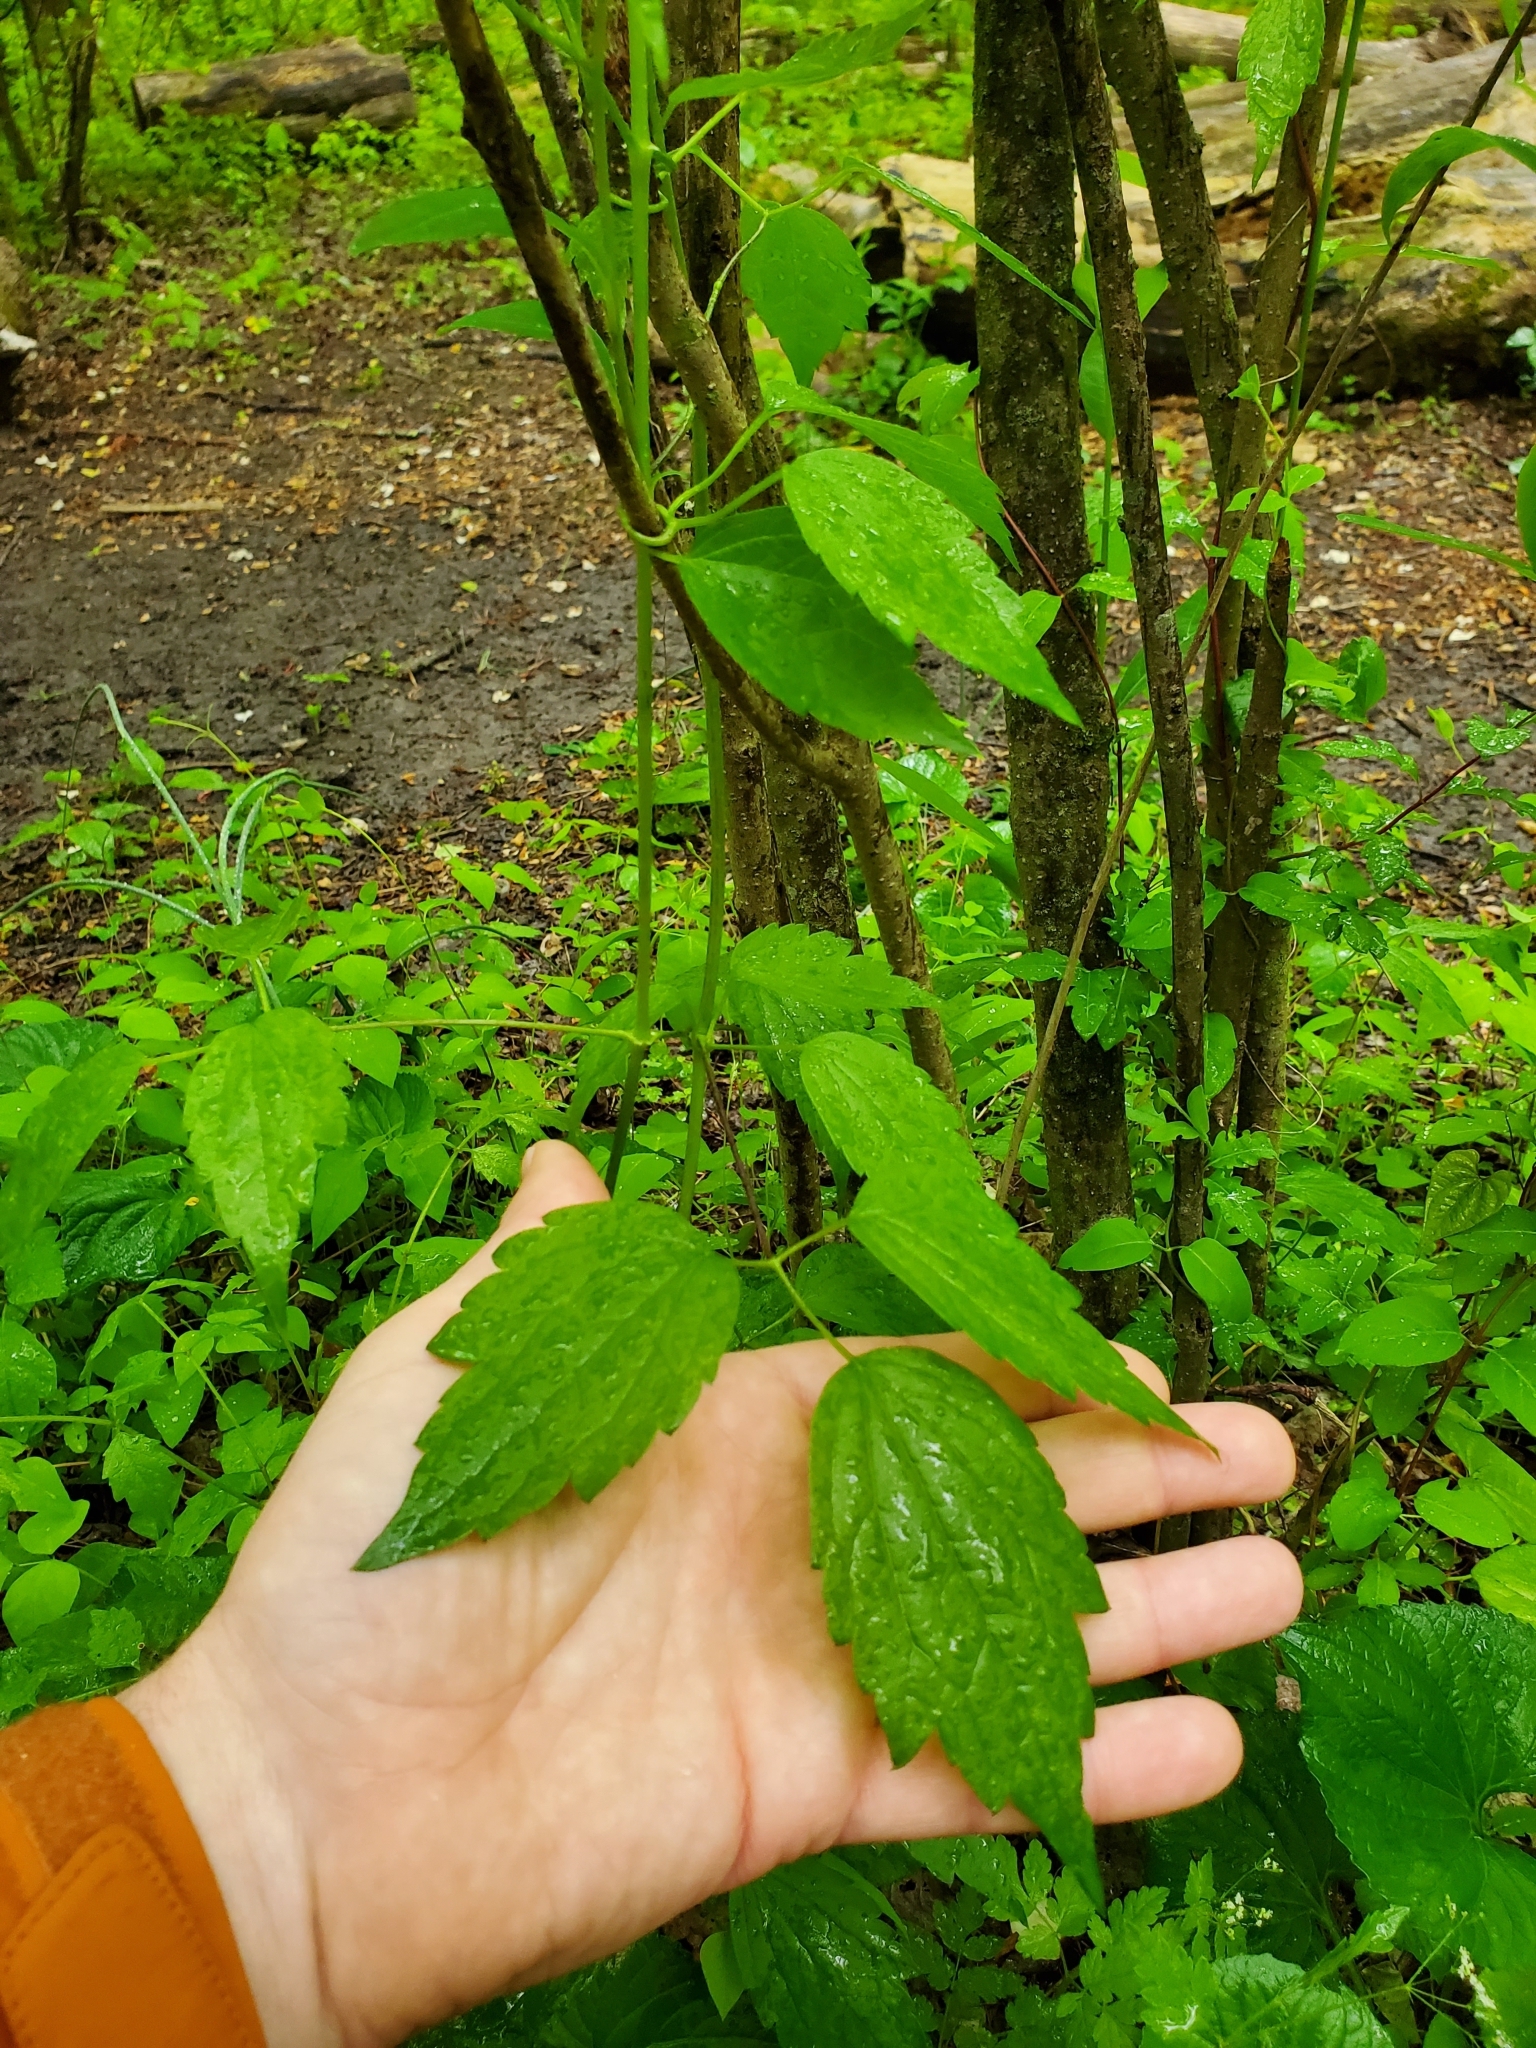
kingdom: Plantae
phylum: Tracheophyta
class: Magnoliopsida
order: Ranunculales
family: Ranunculaceae
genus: Clematis
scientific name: Clematis virginiana
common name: Virgin's-bower
